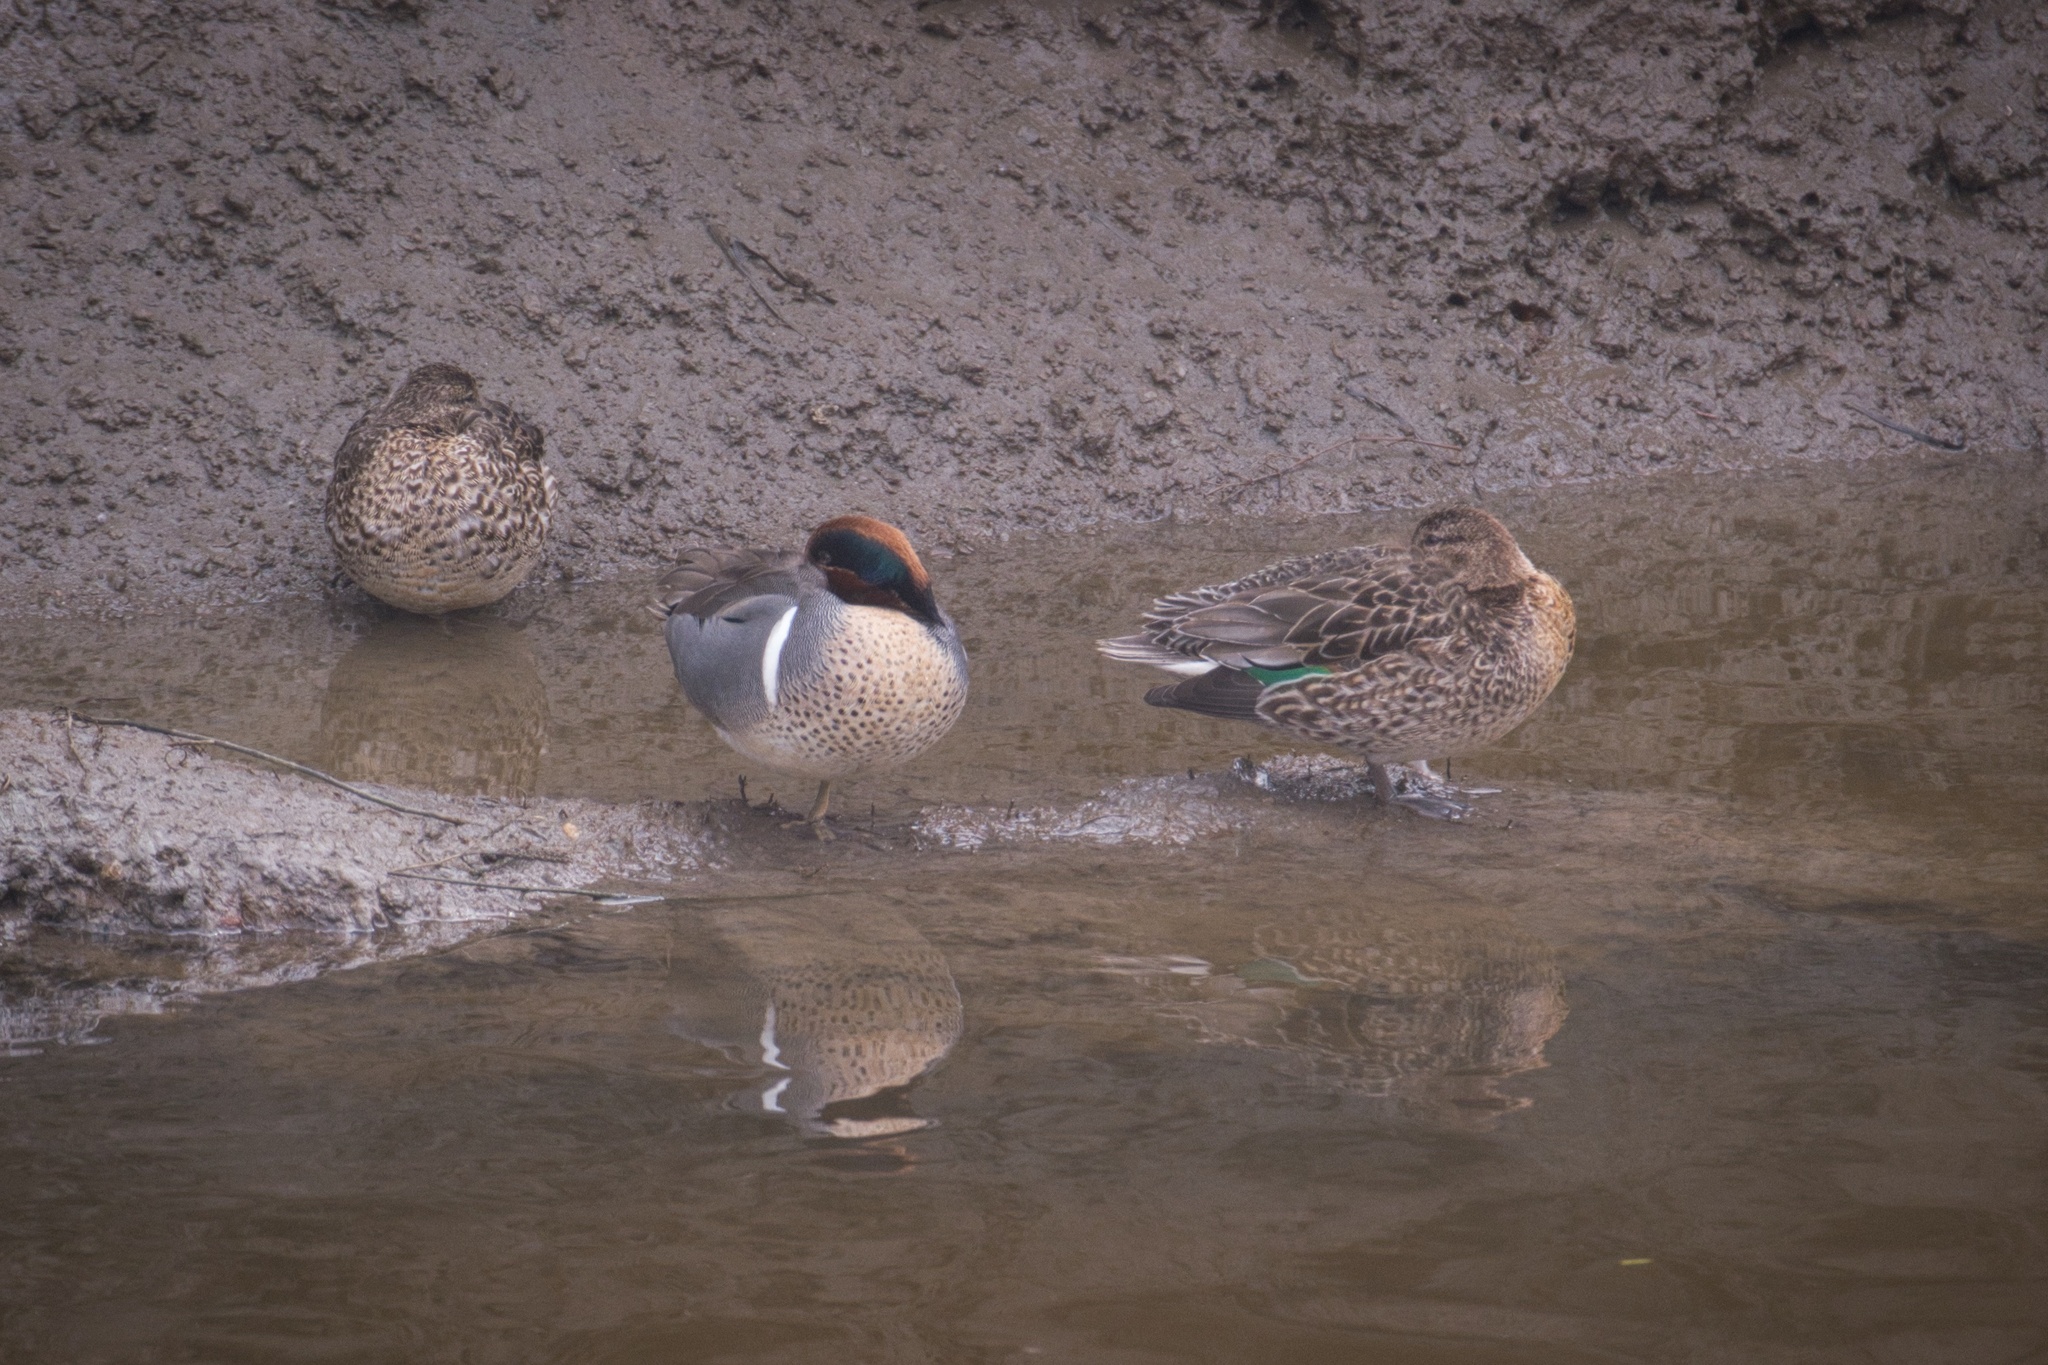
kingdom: Animalia
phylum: Chordata
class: Aves
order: Anseriformes
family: Anatidae
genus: Anas
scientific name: Anas crecca
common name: Eurasian teal
